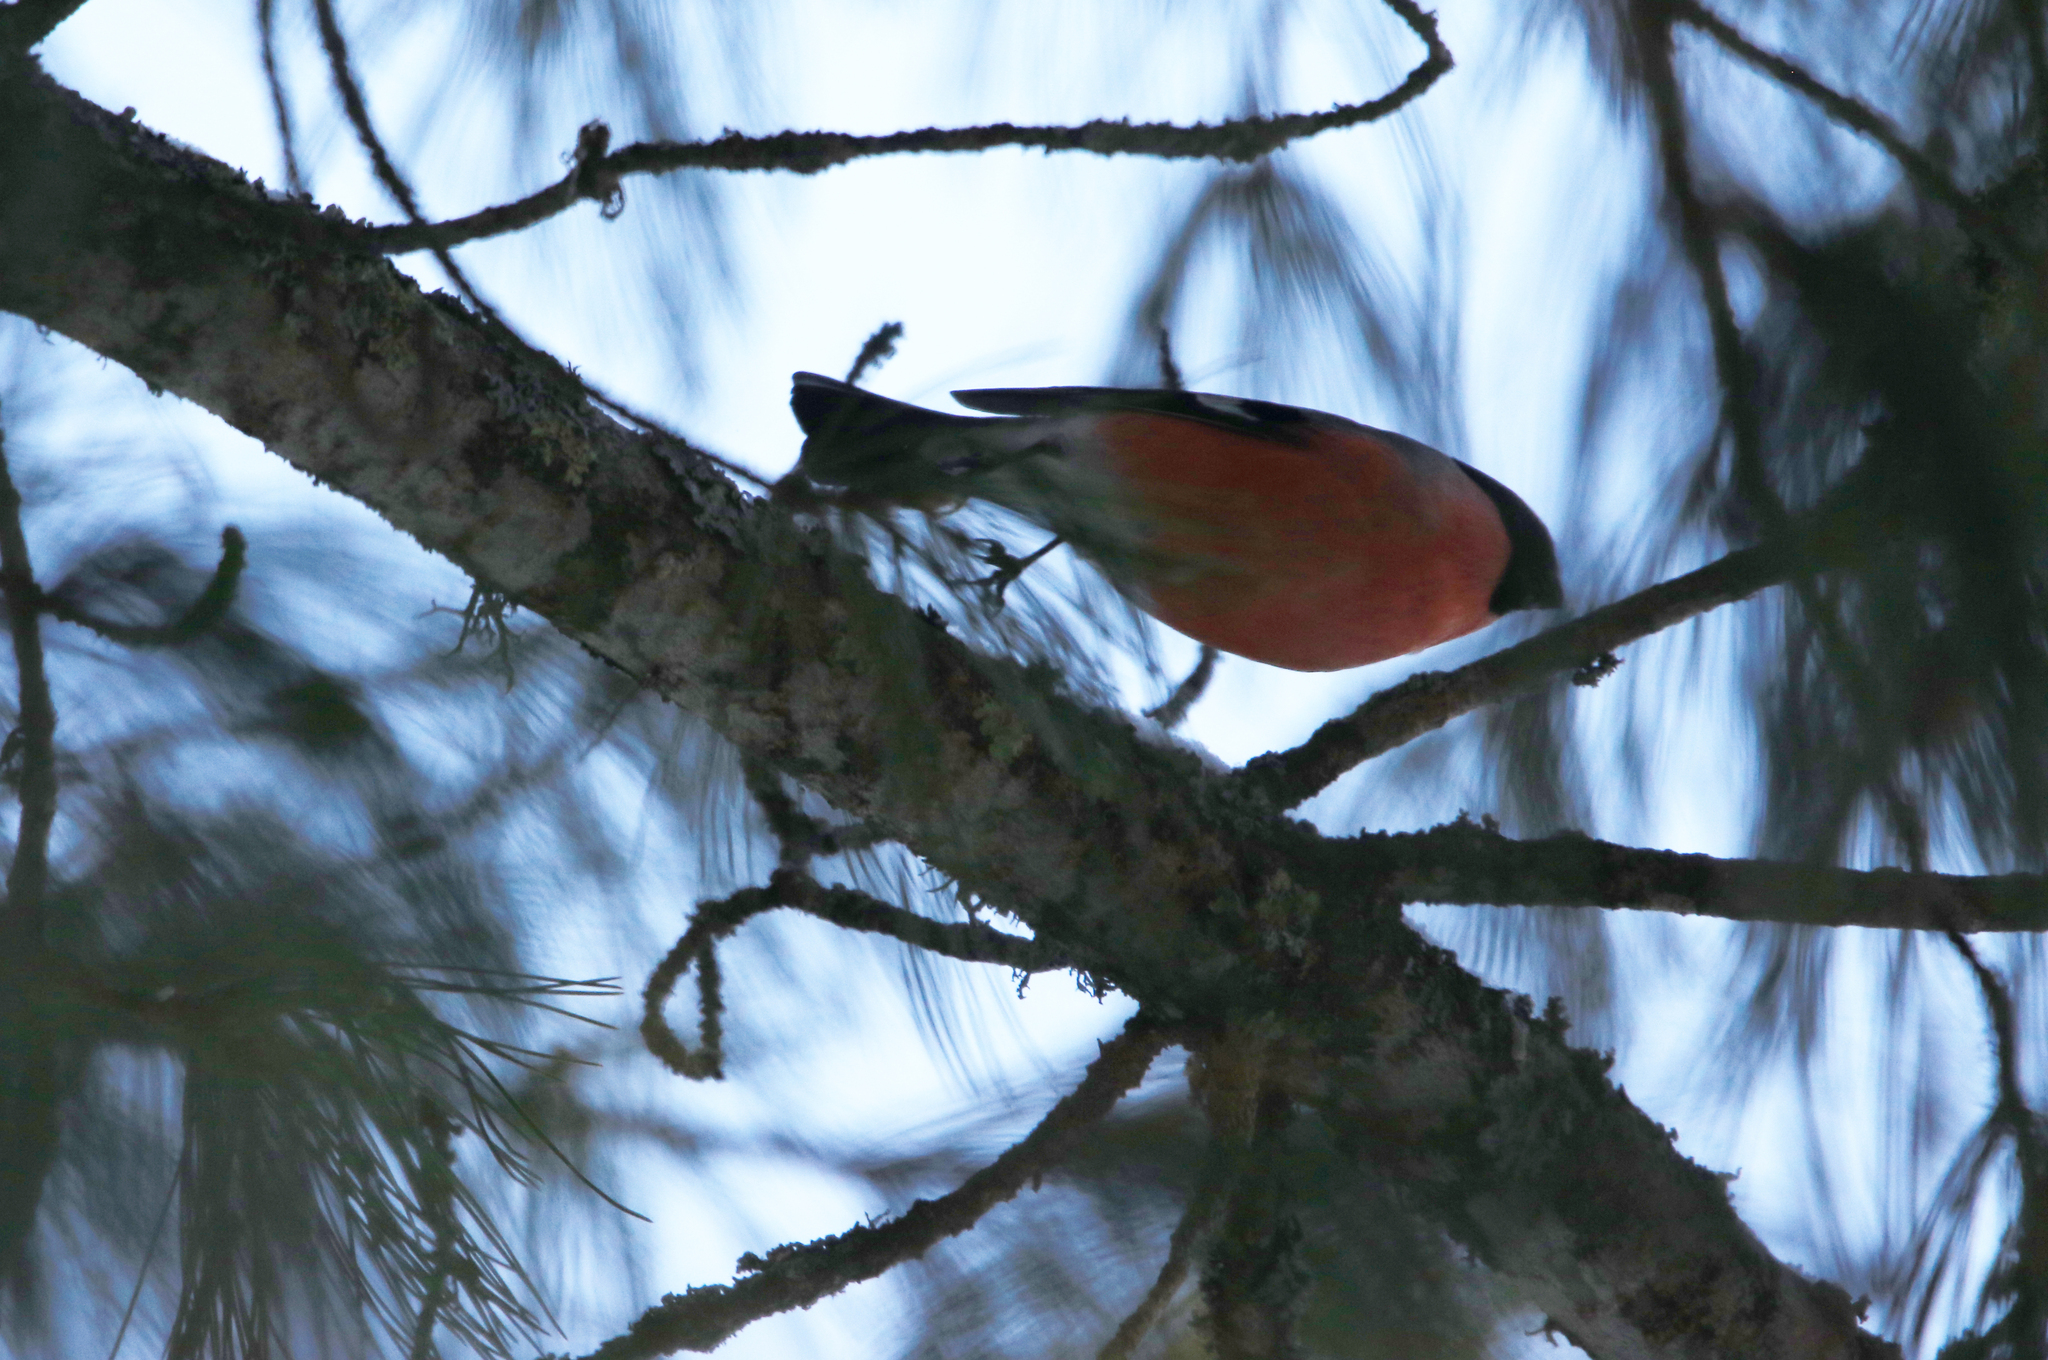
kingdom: Animalia
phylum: Chordata
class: Aves
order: Passeriformes
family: Fringillidae
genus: Pyrrhula
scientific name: Pyrrhula pyrrhula
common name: Eurasian bullfinch
